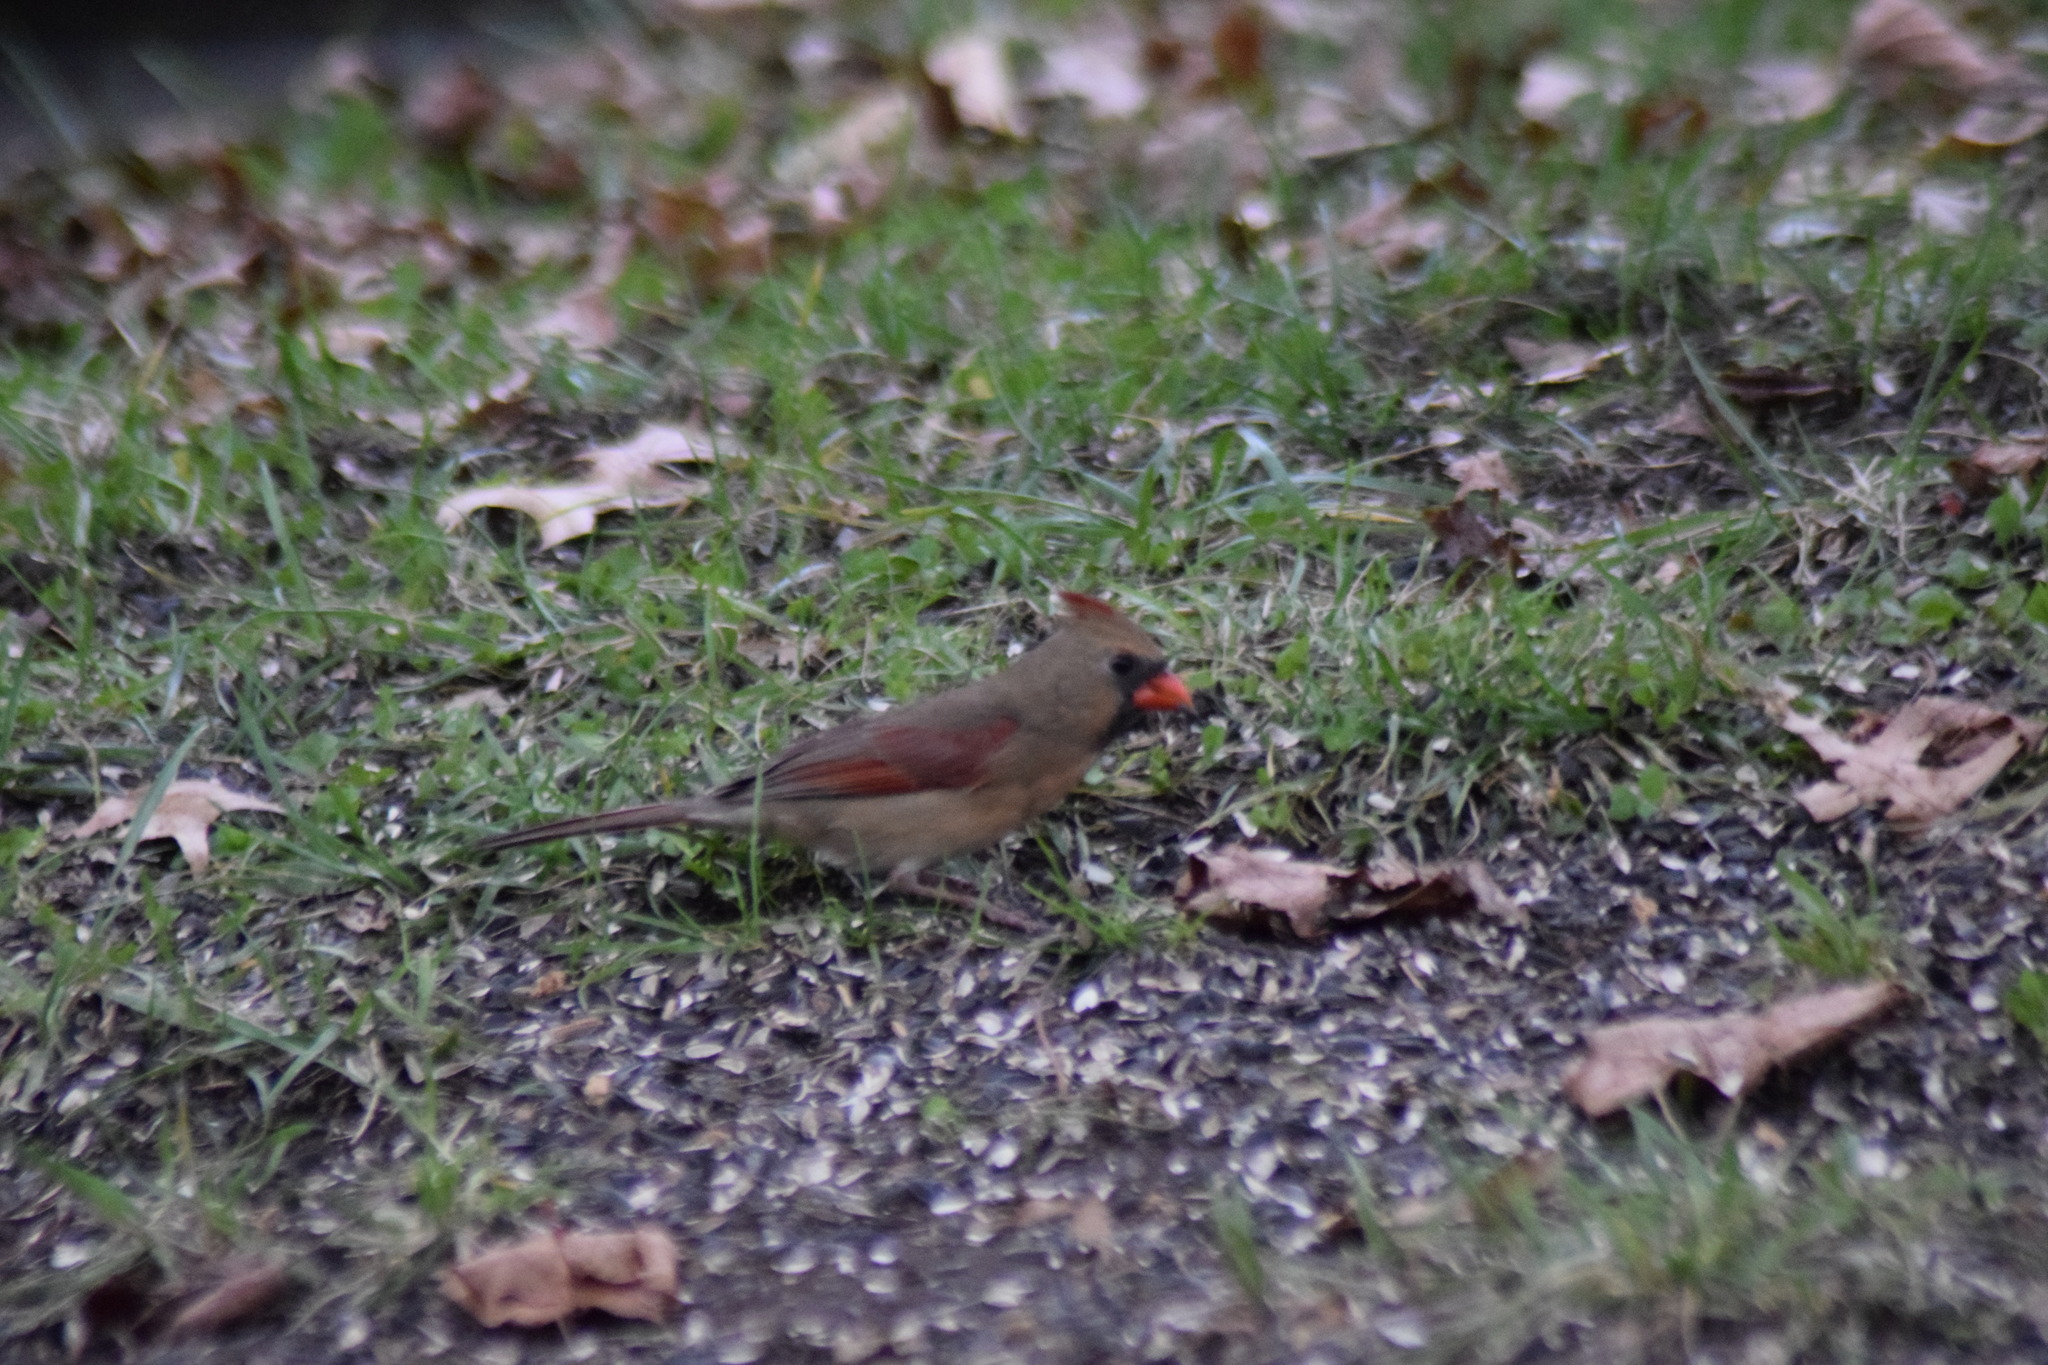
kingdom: Animalia
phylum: Chordata
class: Aves
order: Passeriformes
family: Cardinalidae
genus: Cardinalis
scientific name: Cardinalis cardinalis
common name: Northern cardinal
